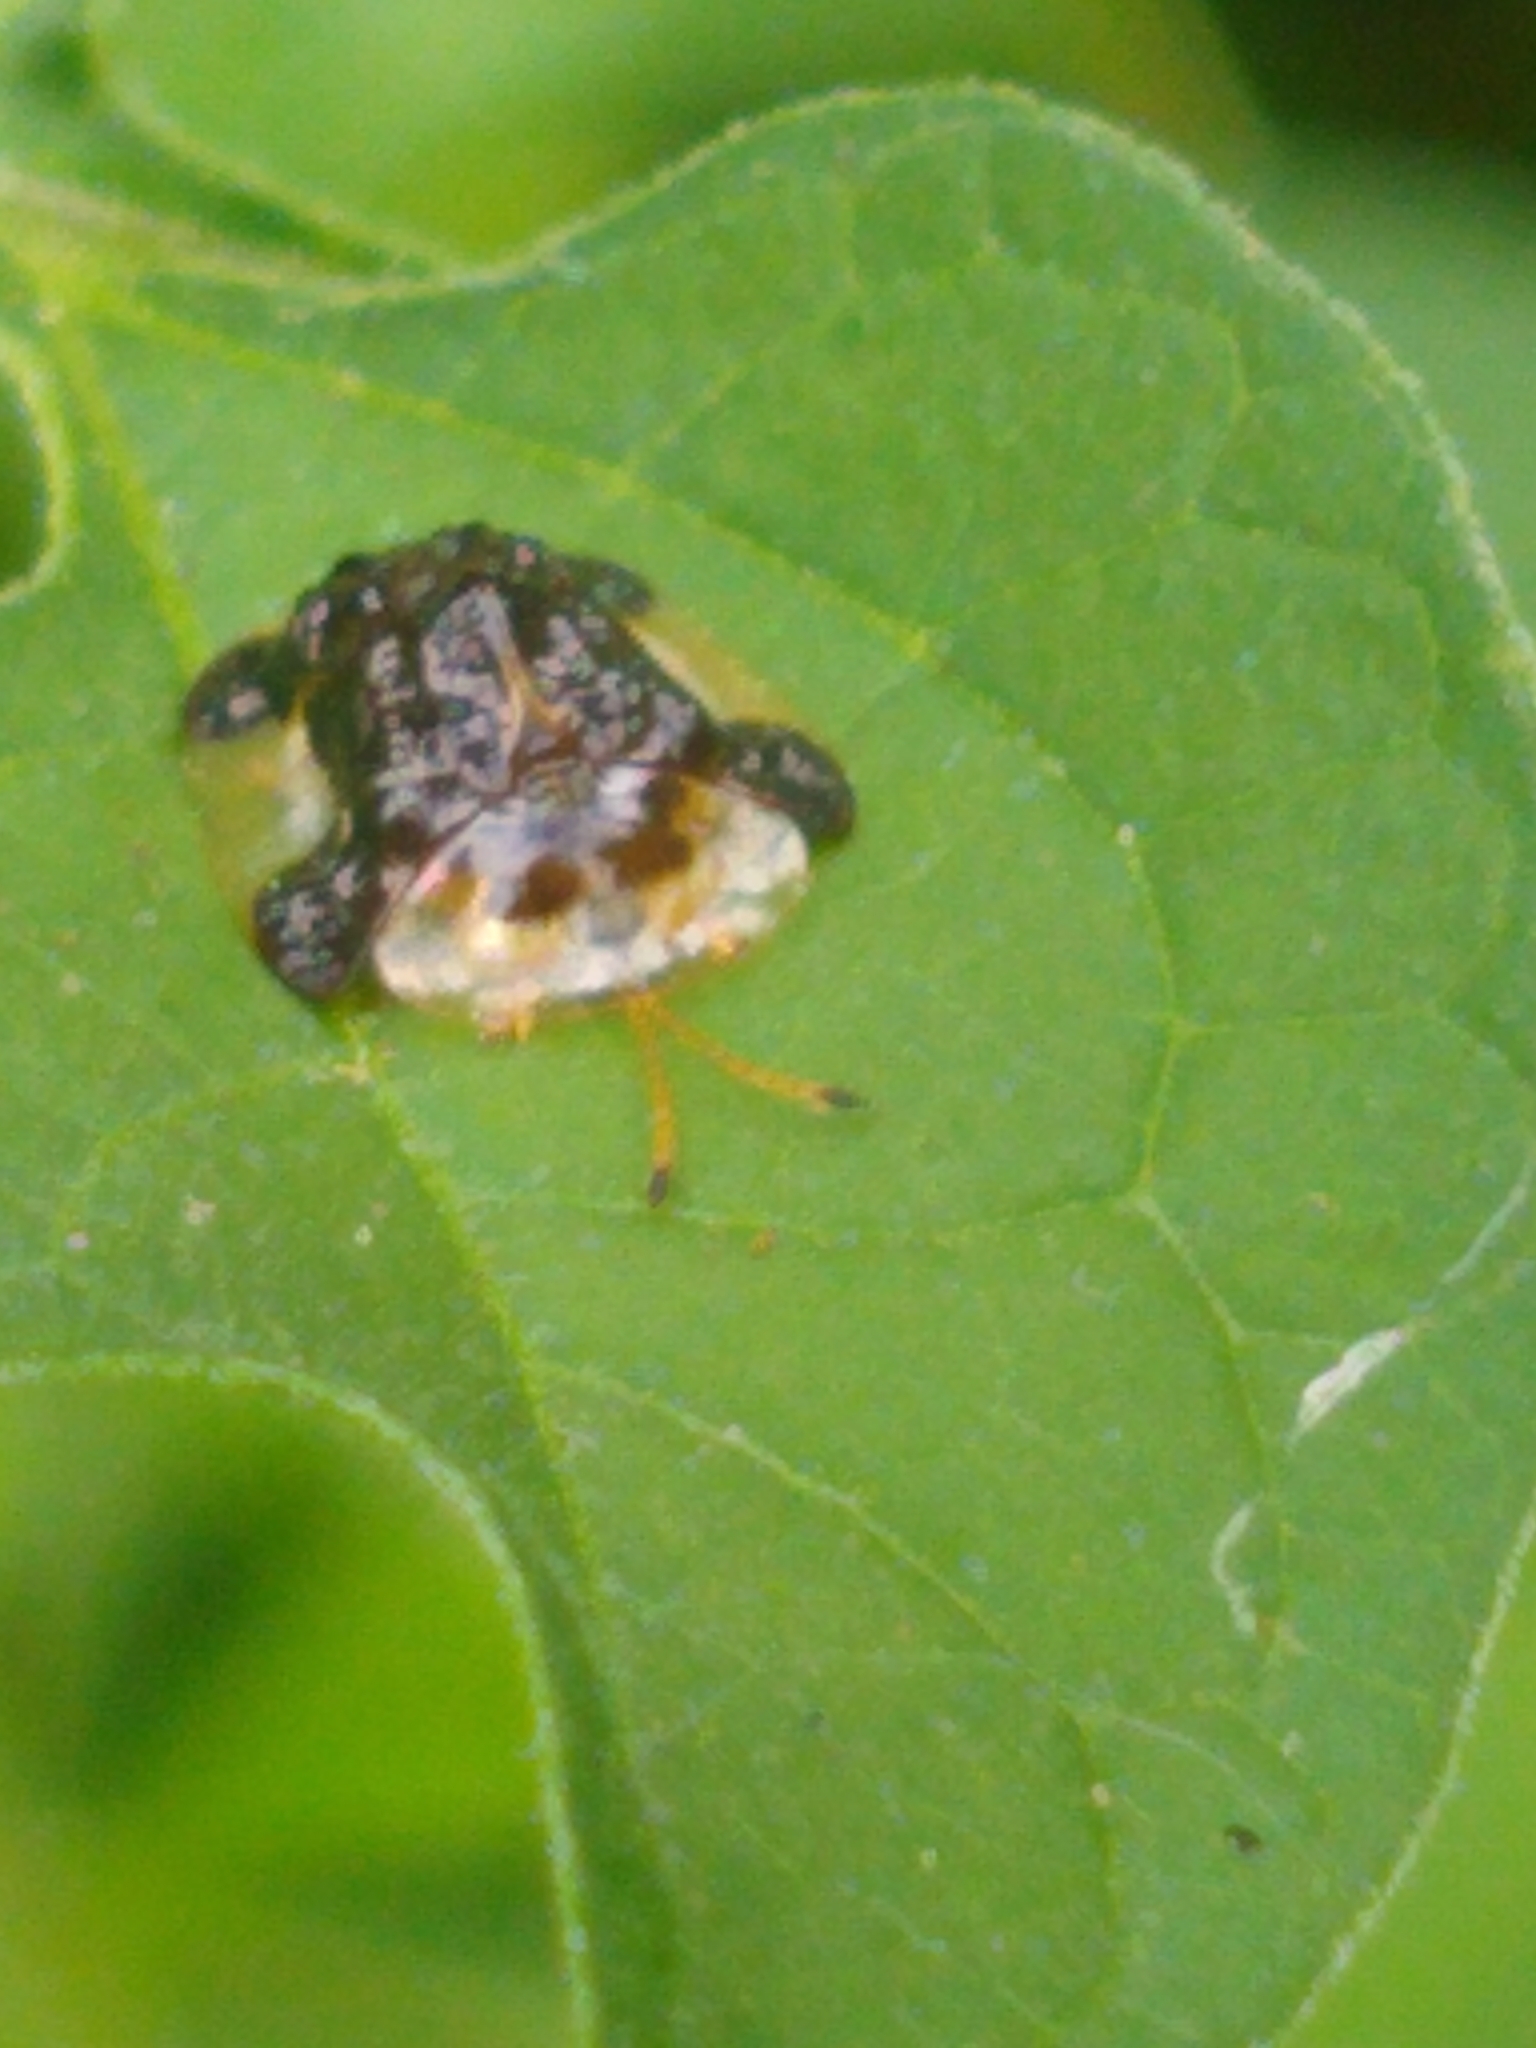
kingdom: Animalia
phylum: Arthropoda
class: Insecta
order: Coleoptera
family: Chrysomelidae
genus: Helocassis
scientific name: Helocassis clavata
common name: Clavate tortoise beetle
